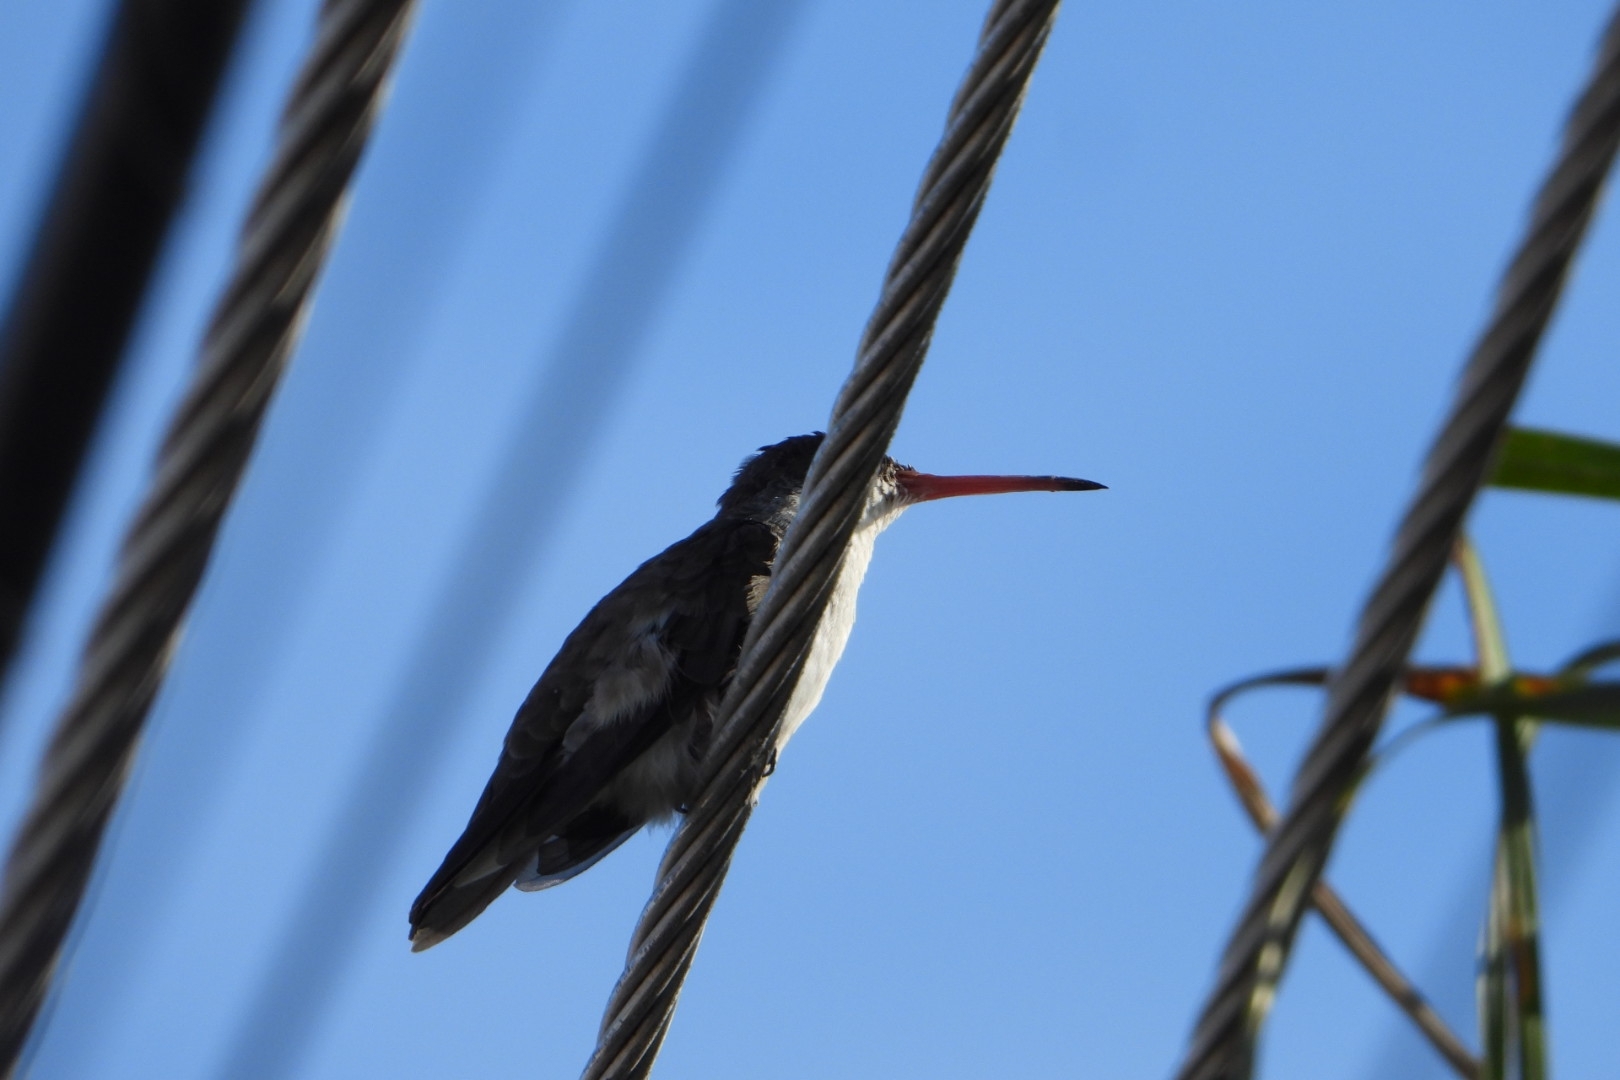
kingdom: Animalia
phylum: Chordata
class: Aves
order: Apodiformes
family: Trochilidae
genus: Leucolia
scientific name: Leucolia violiceps
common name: Violet-crowned hummingbird
